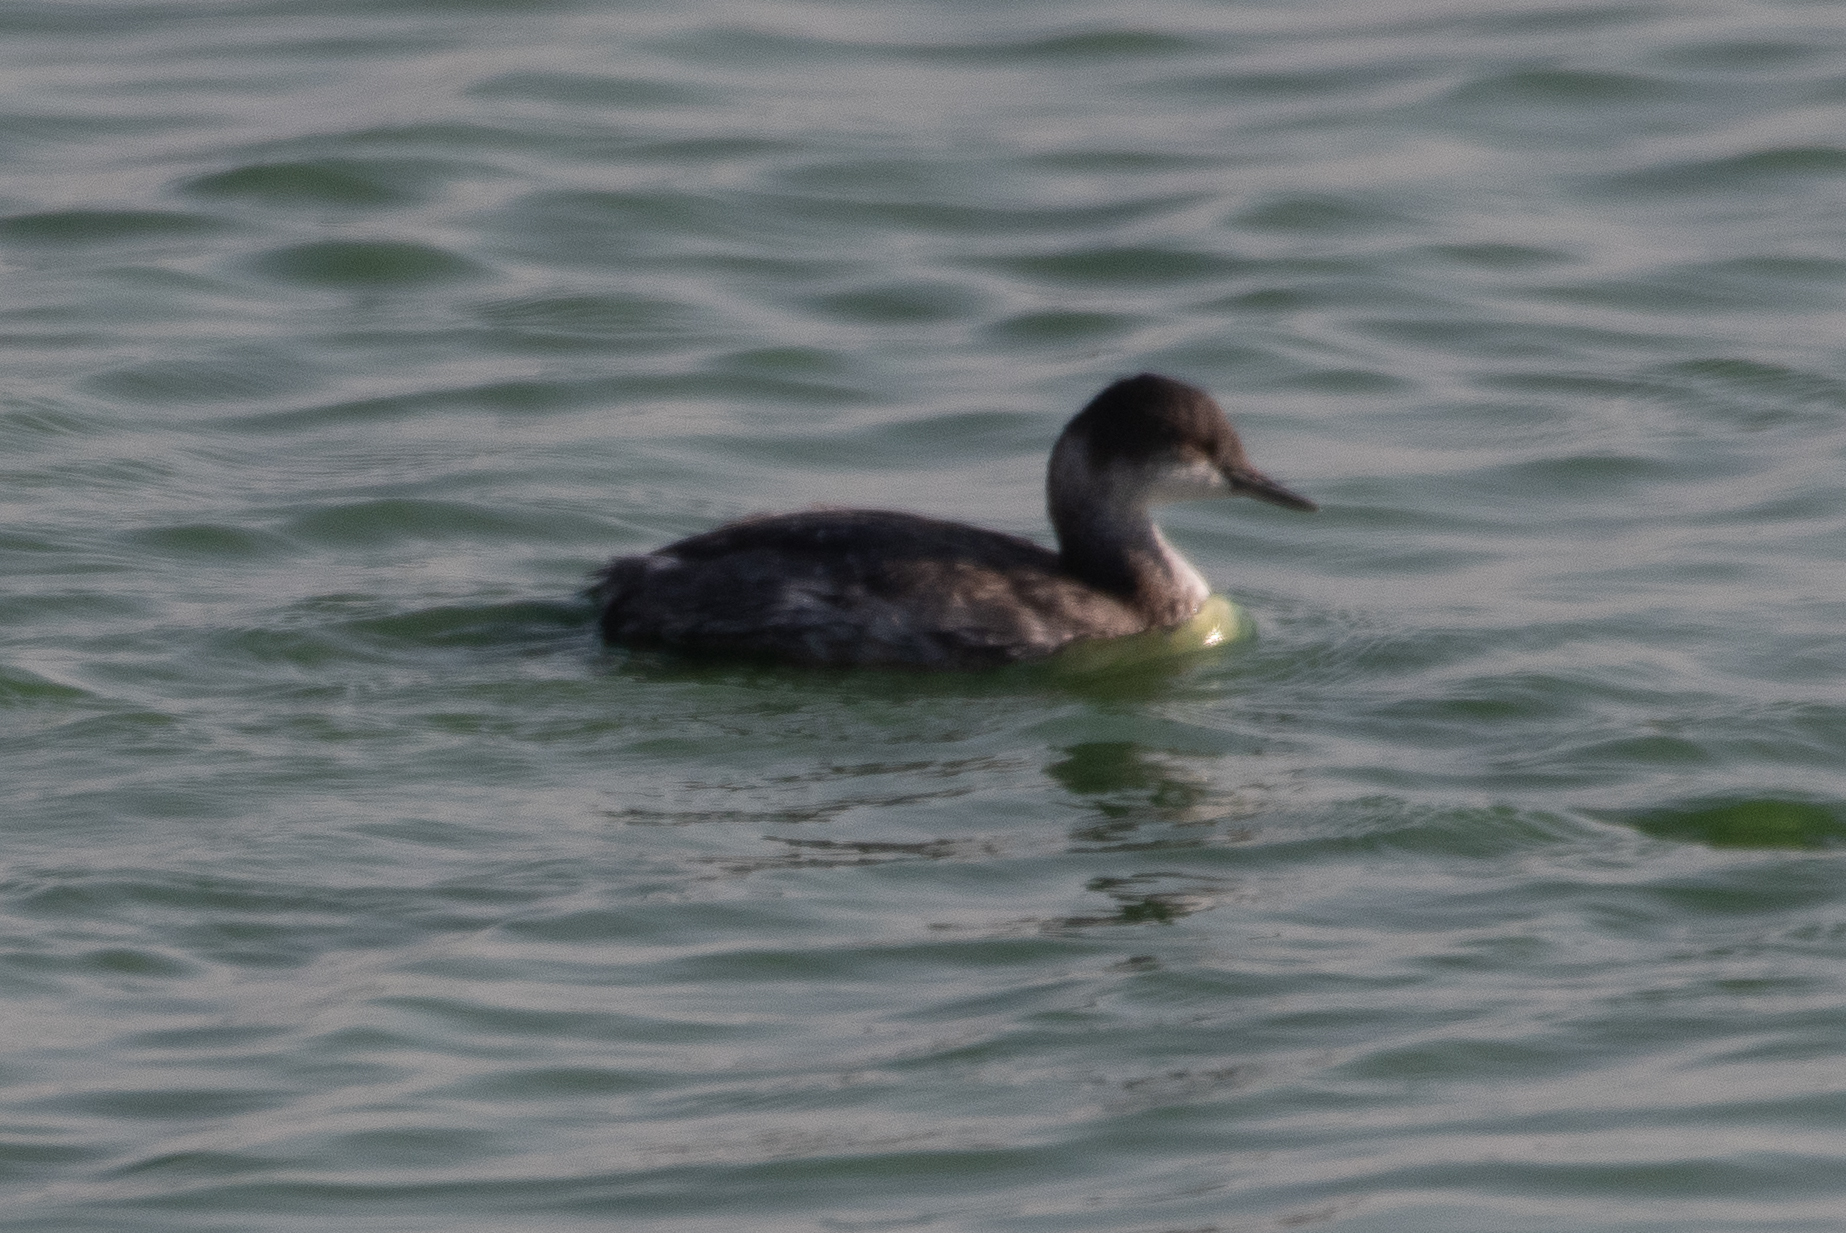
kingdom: Animalia
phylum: Chordata
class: Aves
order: Podicipediformes
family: Podicipedidae
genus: Podiceps
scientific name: Podiceps nigricollis
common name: Black-necked grebe
